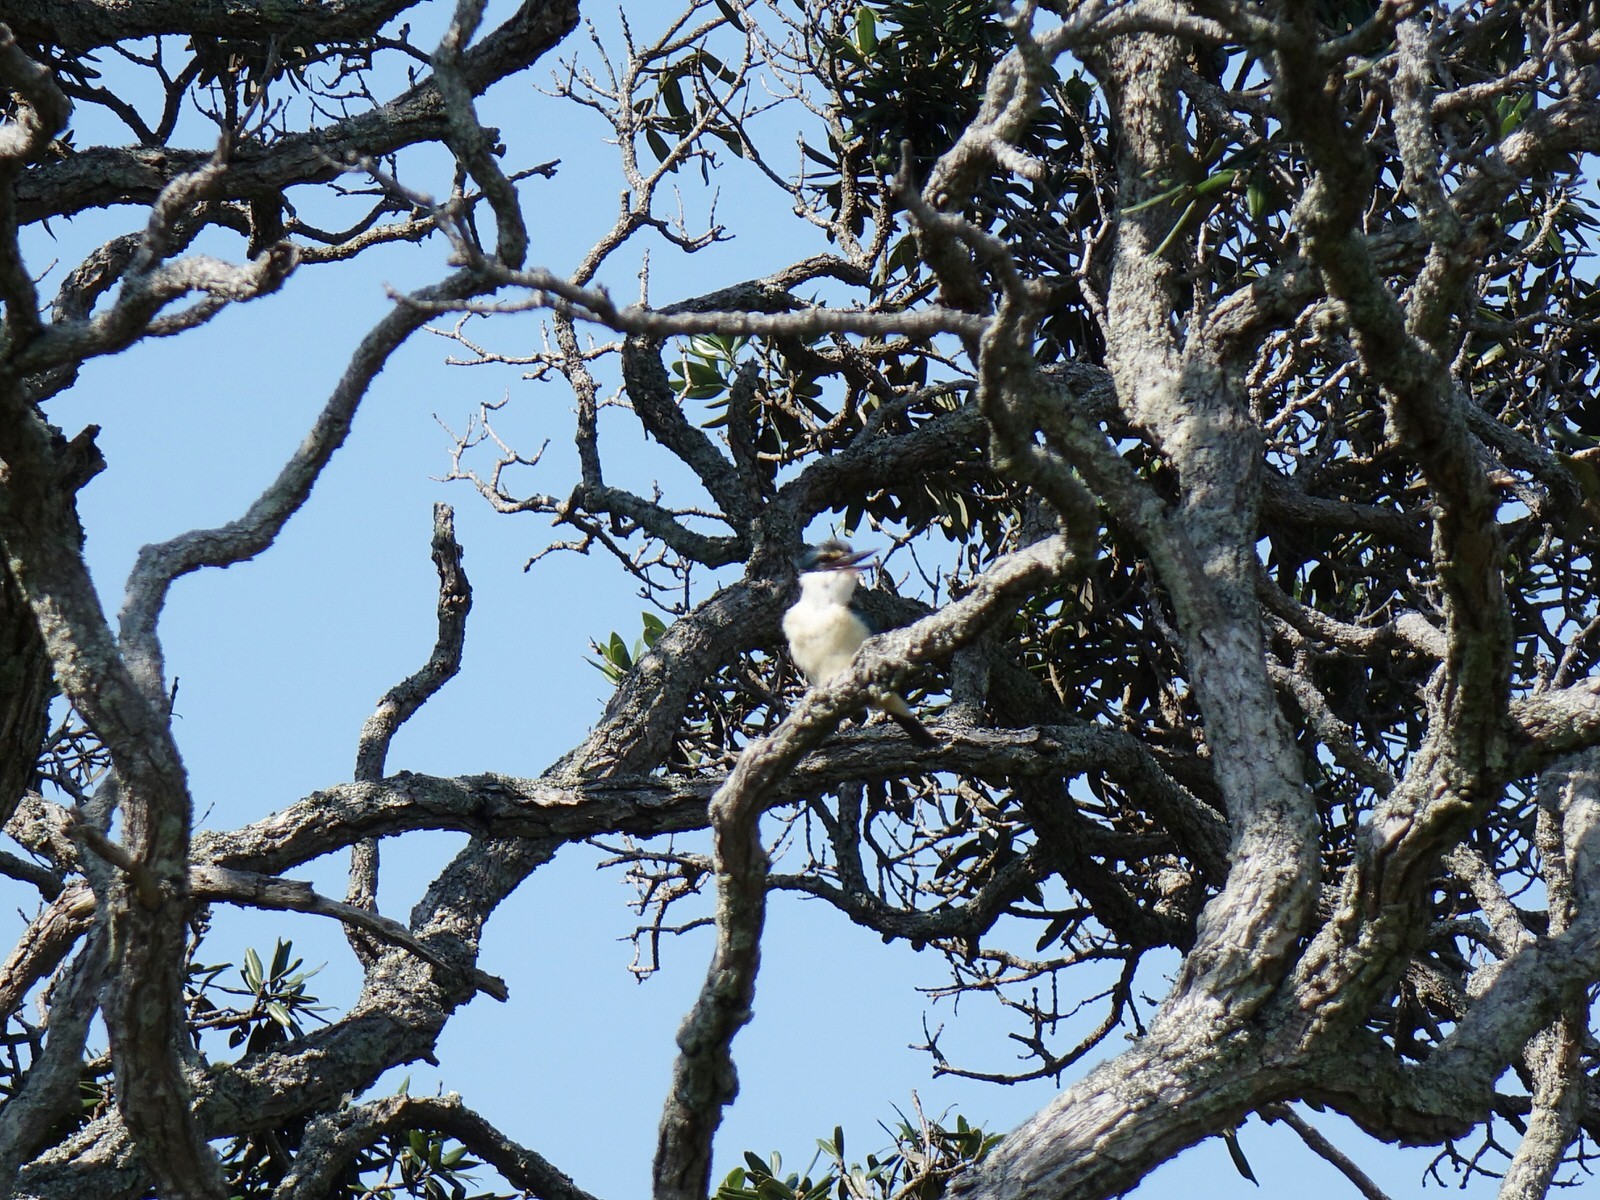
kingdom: Animalia
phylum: Chordata
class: Aves
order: Coraciiformes
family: Alcedinidae
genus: Todiramphus
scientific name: Todiramphus sanctus
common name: Sacred kingfisher
